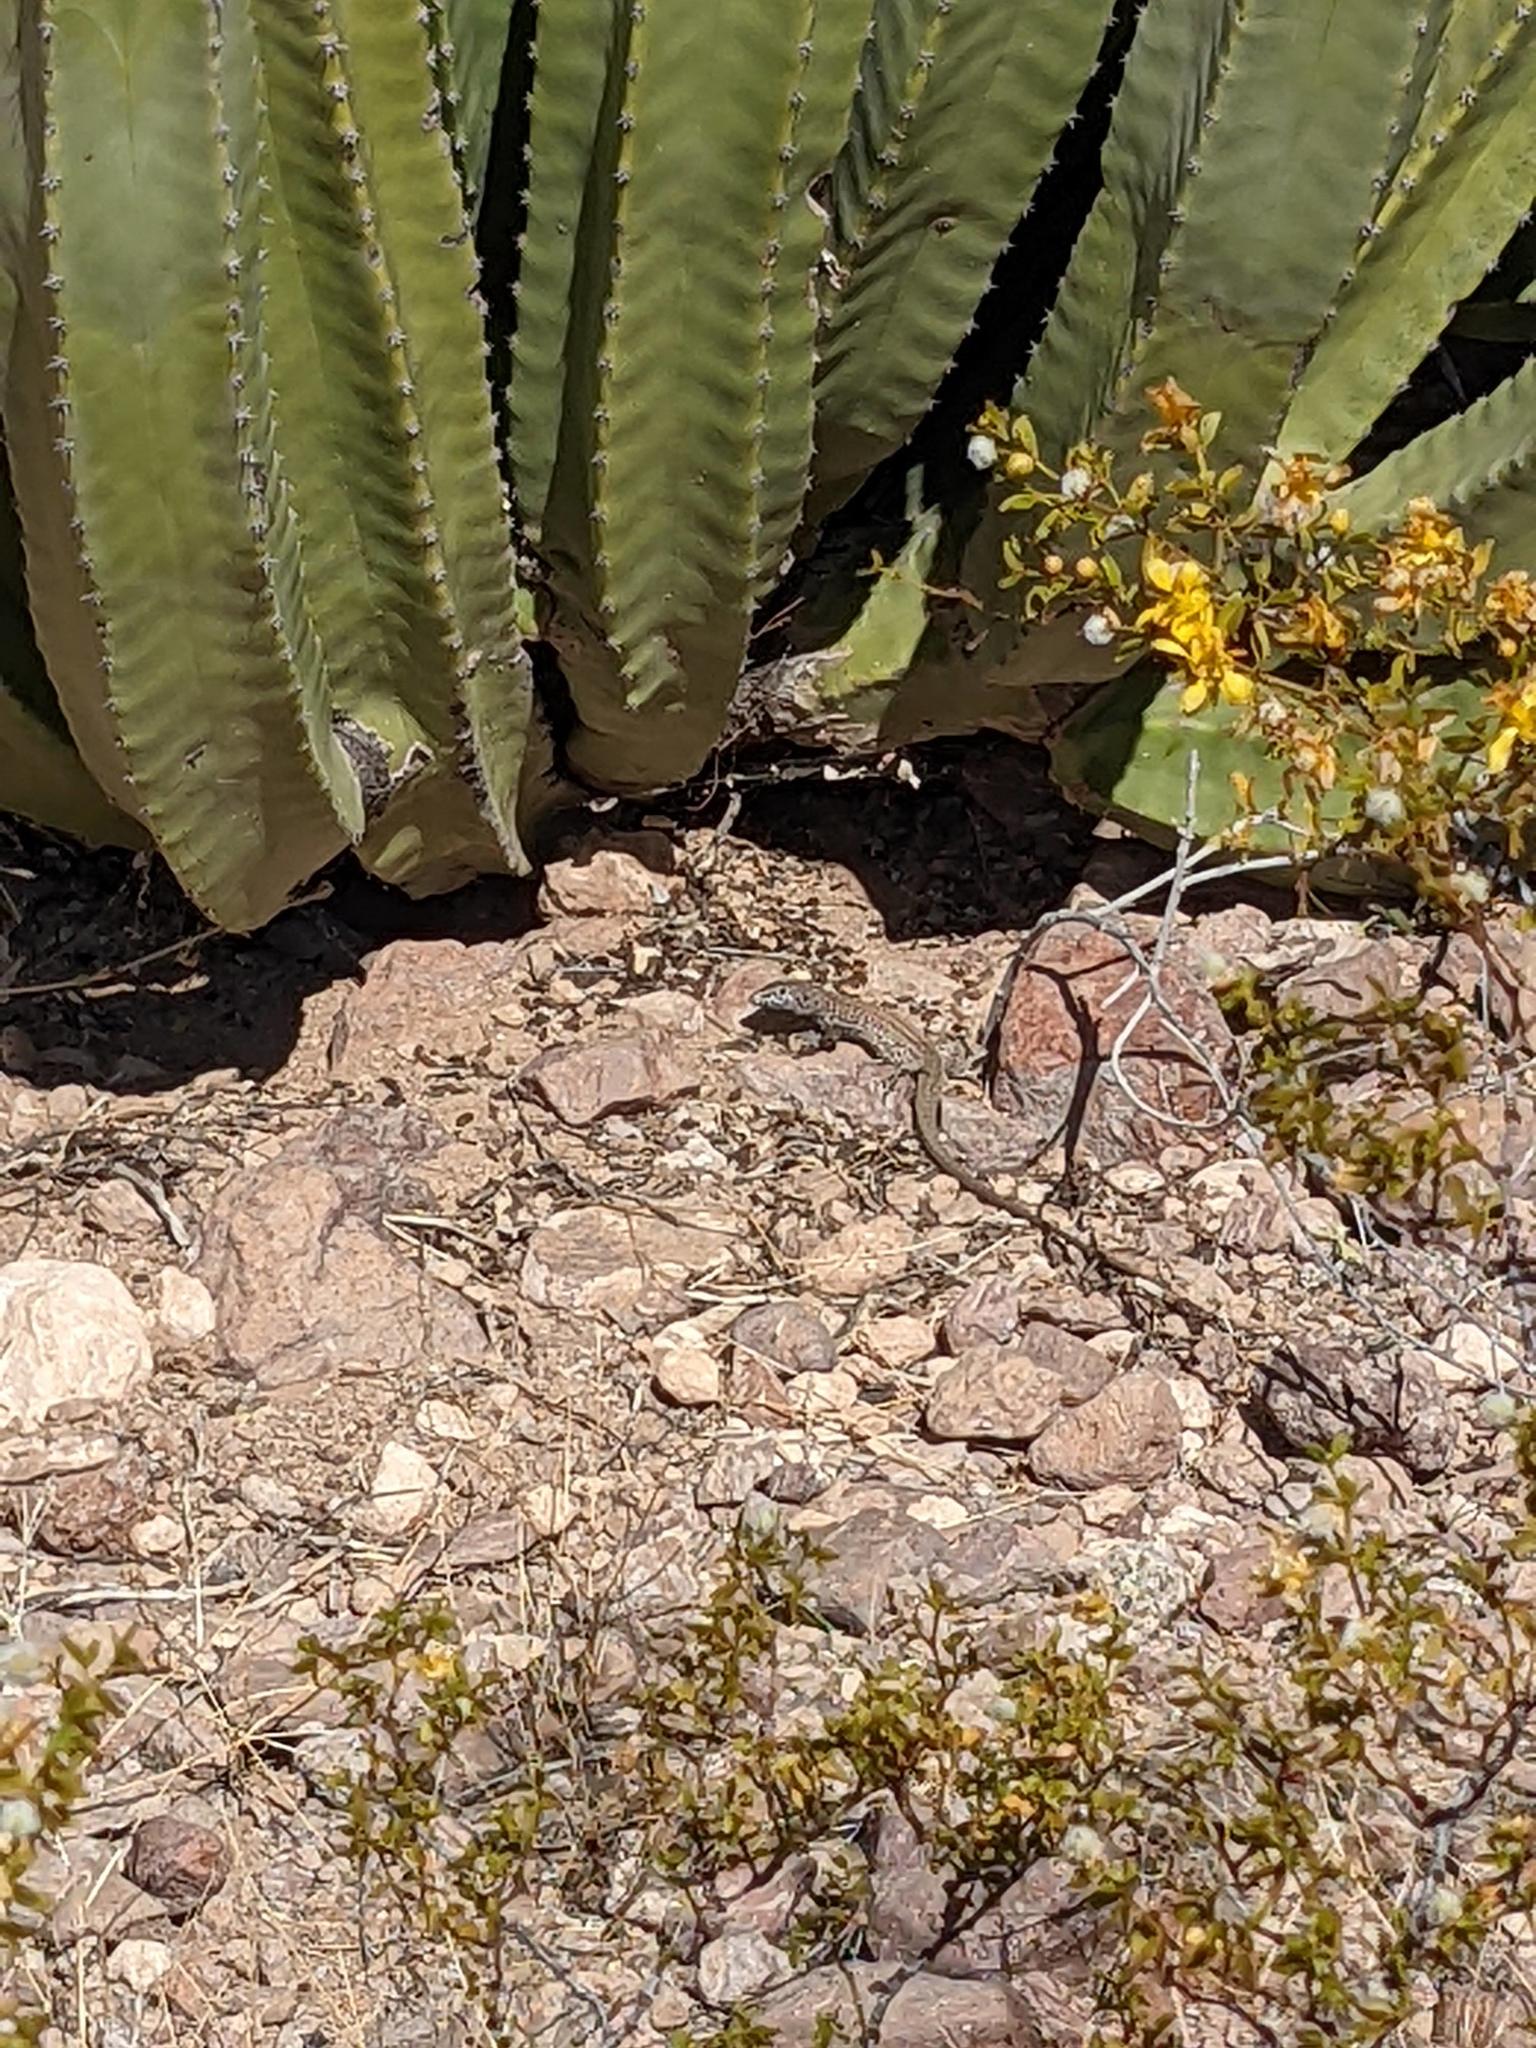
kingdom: Animalia
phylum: Chordata
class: Squamata
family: Teiidae
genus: Aspidoscelis
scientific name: Aspidoscelis tigris
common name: Tiger whiptail
